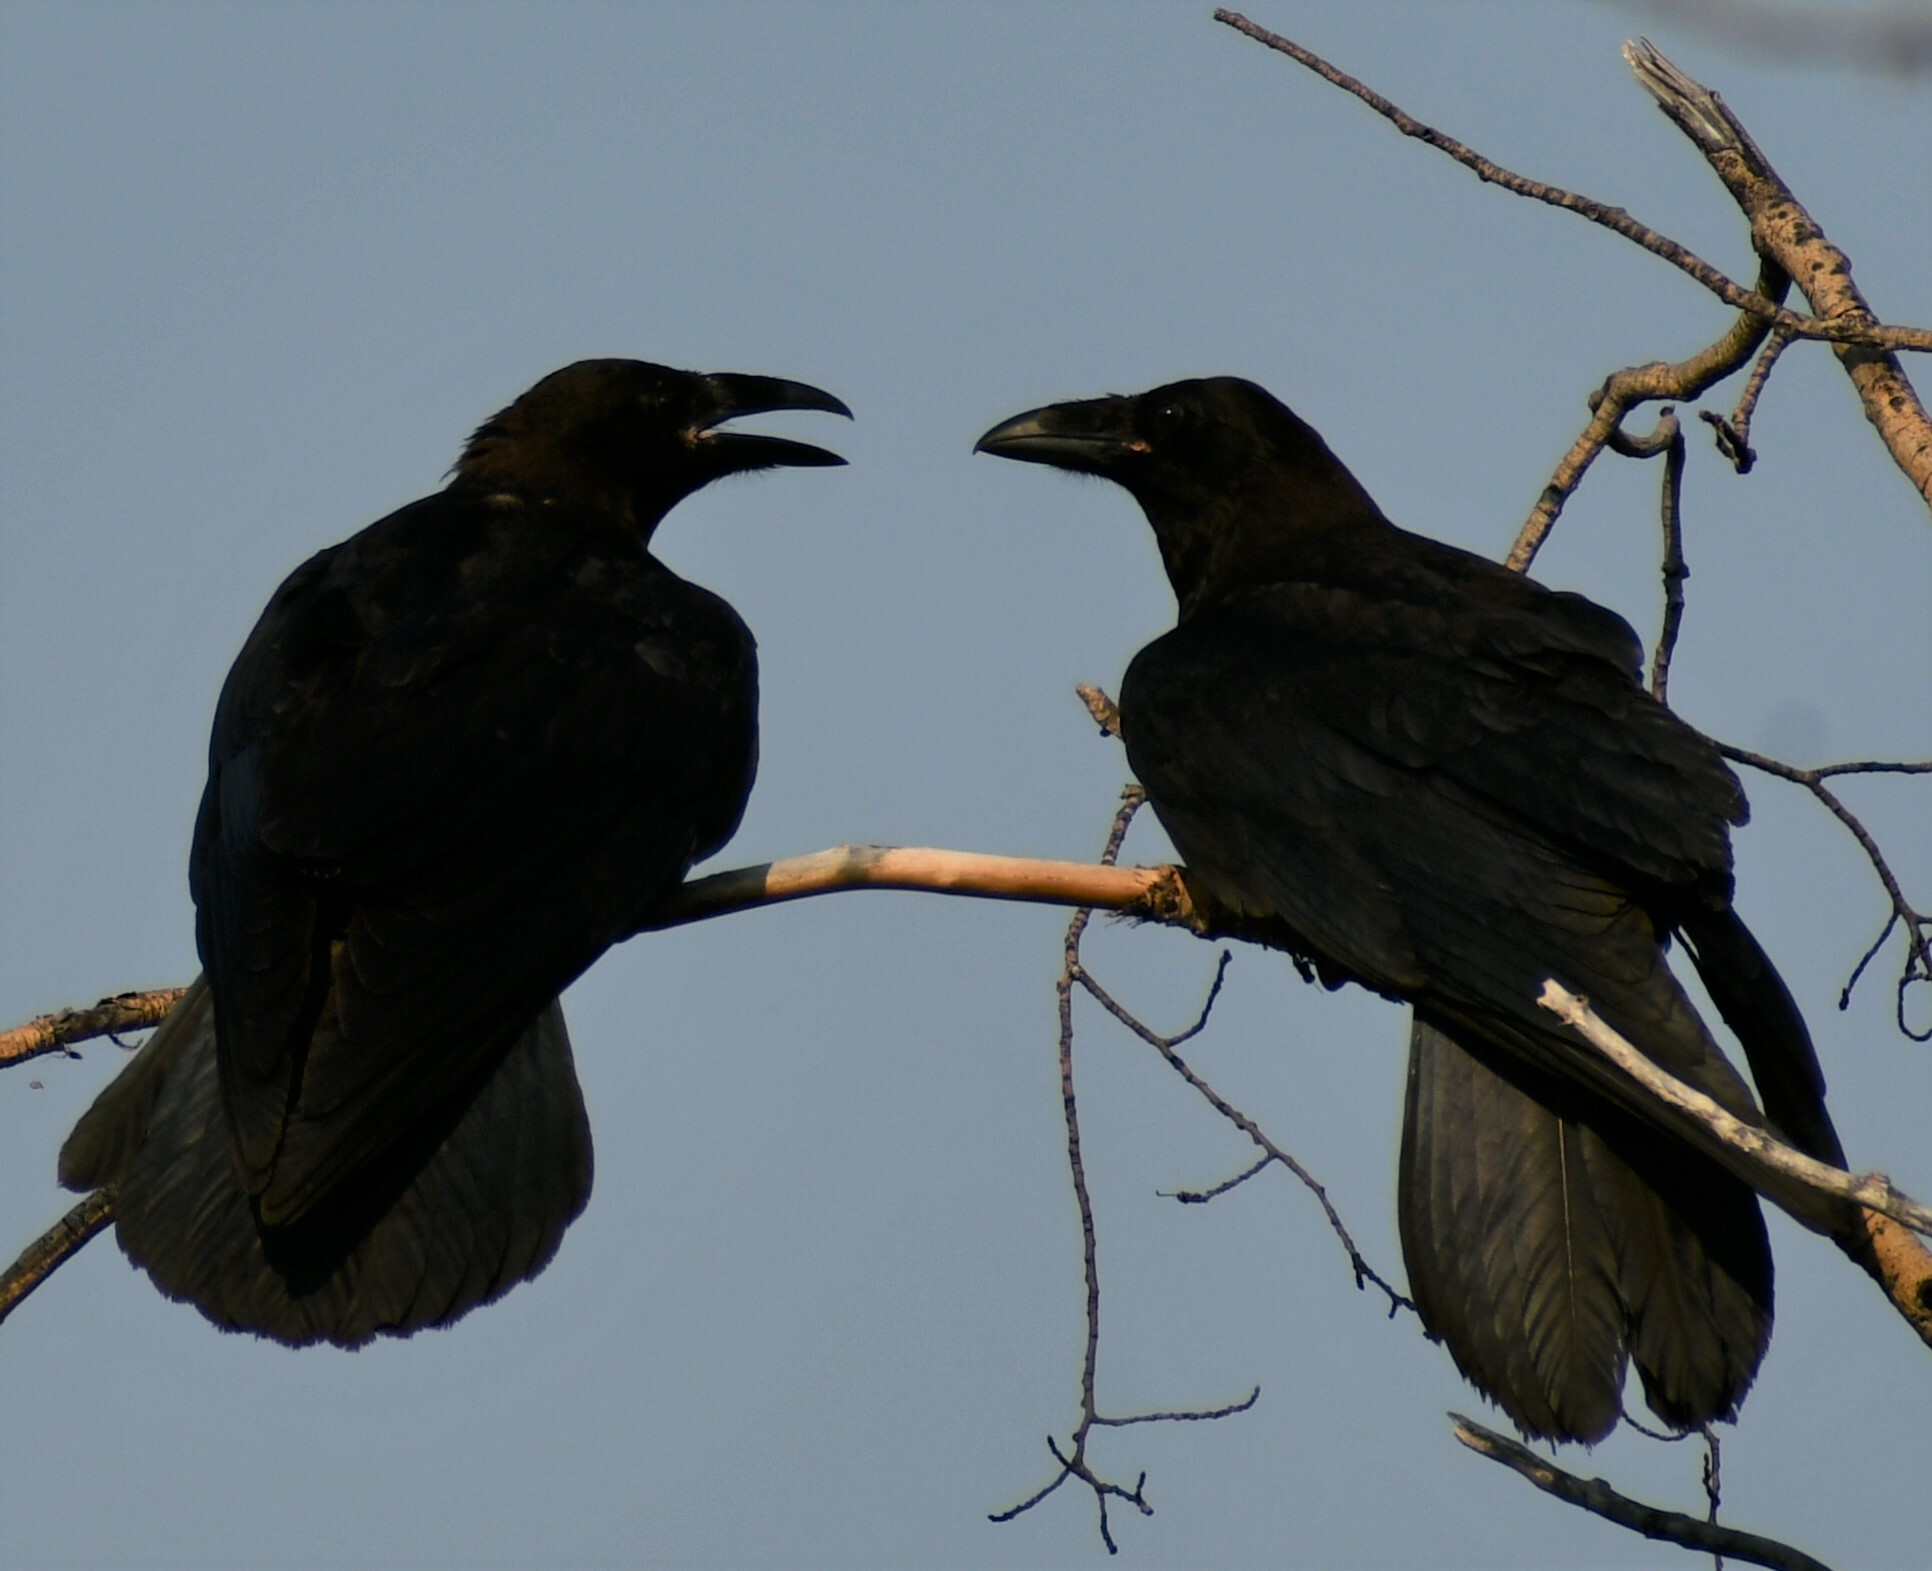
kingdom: Animalia
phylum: Chordata
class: Aves
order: Passeriformes
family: Corvidae
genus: Corvus
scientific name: Corvus corax
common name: Common raven
